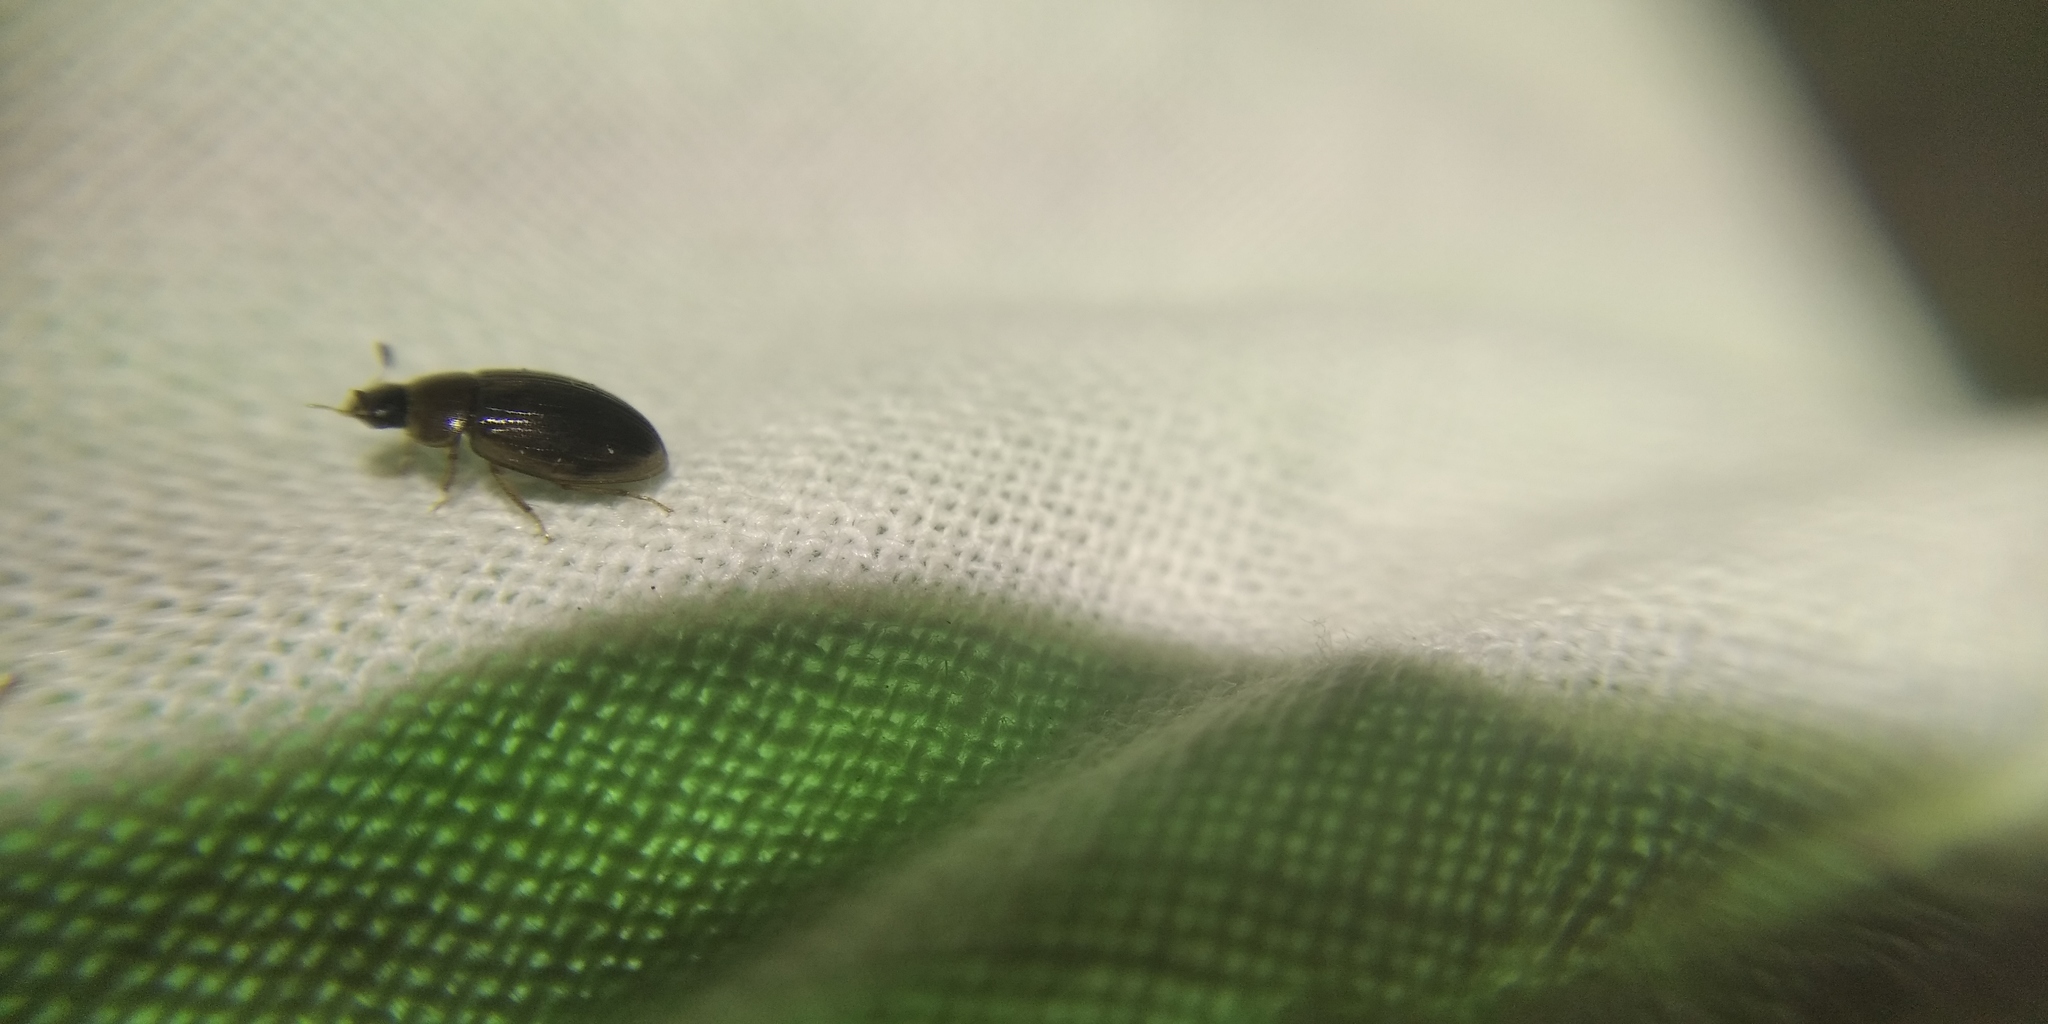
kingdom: Animalia
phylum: Arthropoda
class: Insecta
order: Coleoptera
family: Hydrophilidae
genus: Cercyon
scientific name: Cercyon laminatus
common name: Water scavenger beetle
